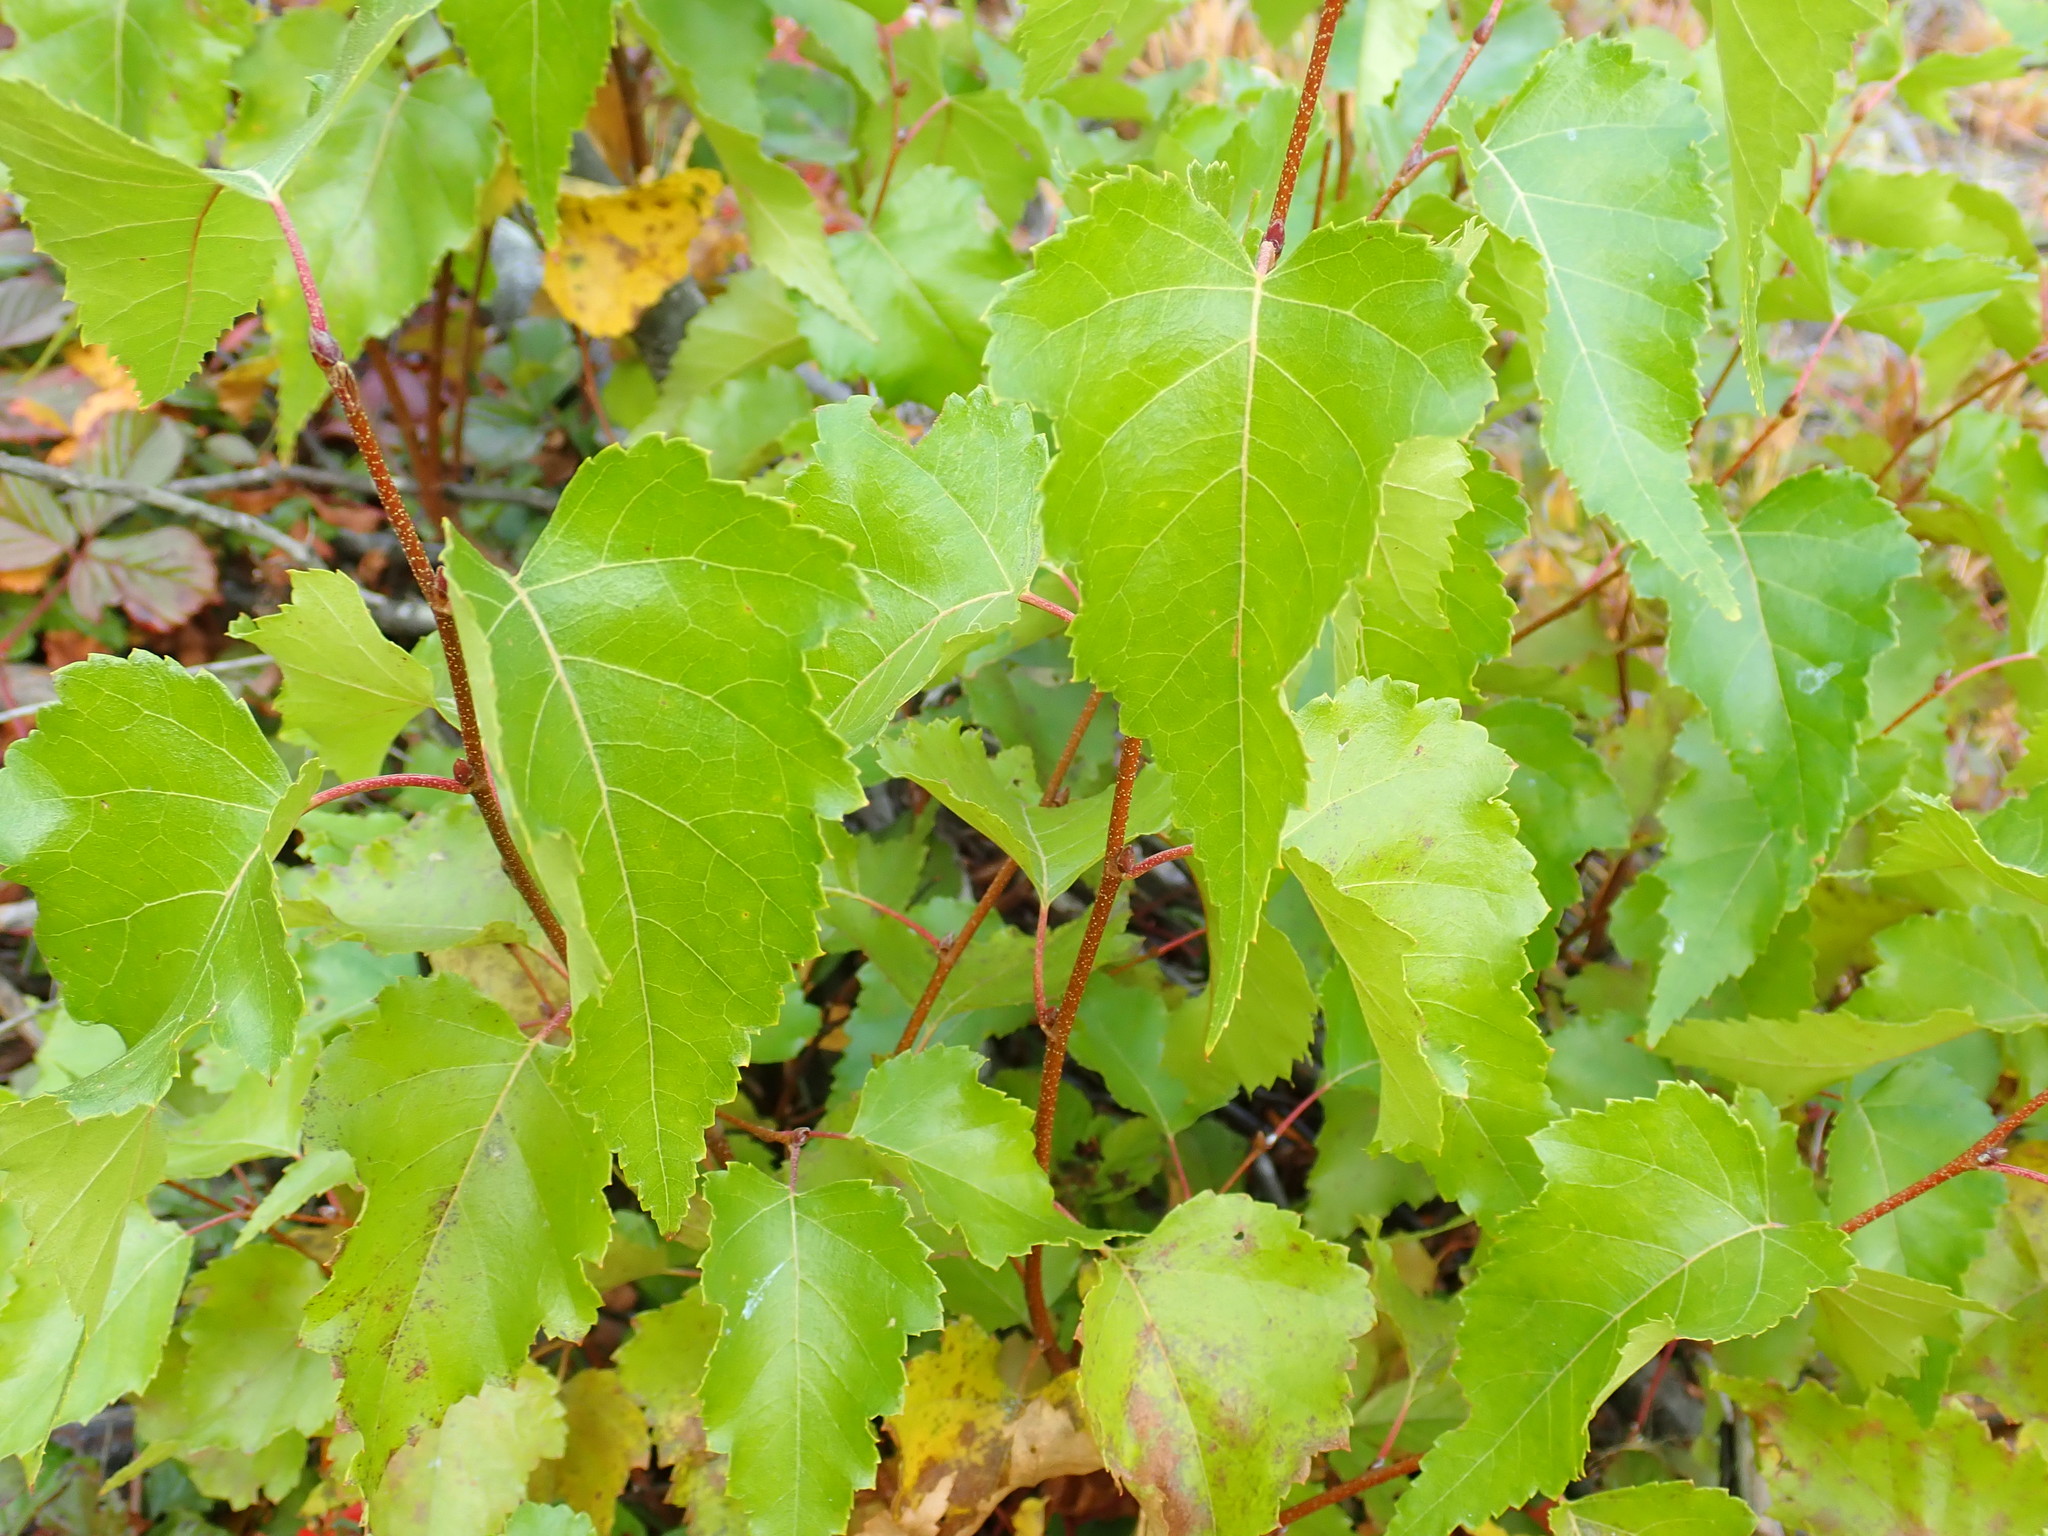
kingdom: Plantae
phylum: Tracheophyta
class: Magnoliopsida
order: Fagales
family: Betulaceae
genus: Betula
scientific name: Betula populifolia
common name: Fire birch
